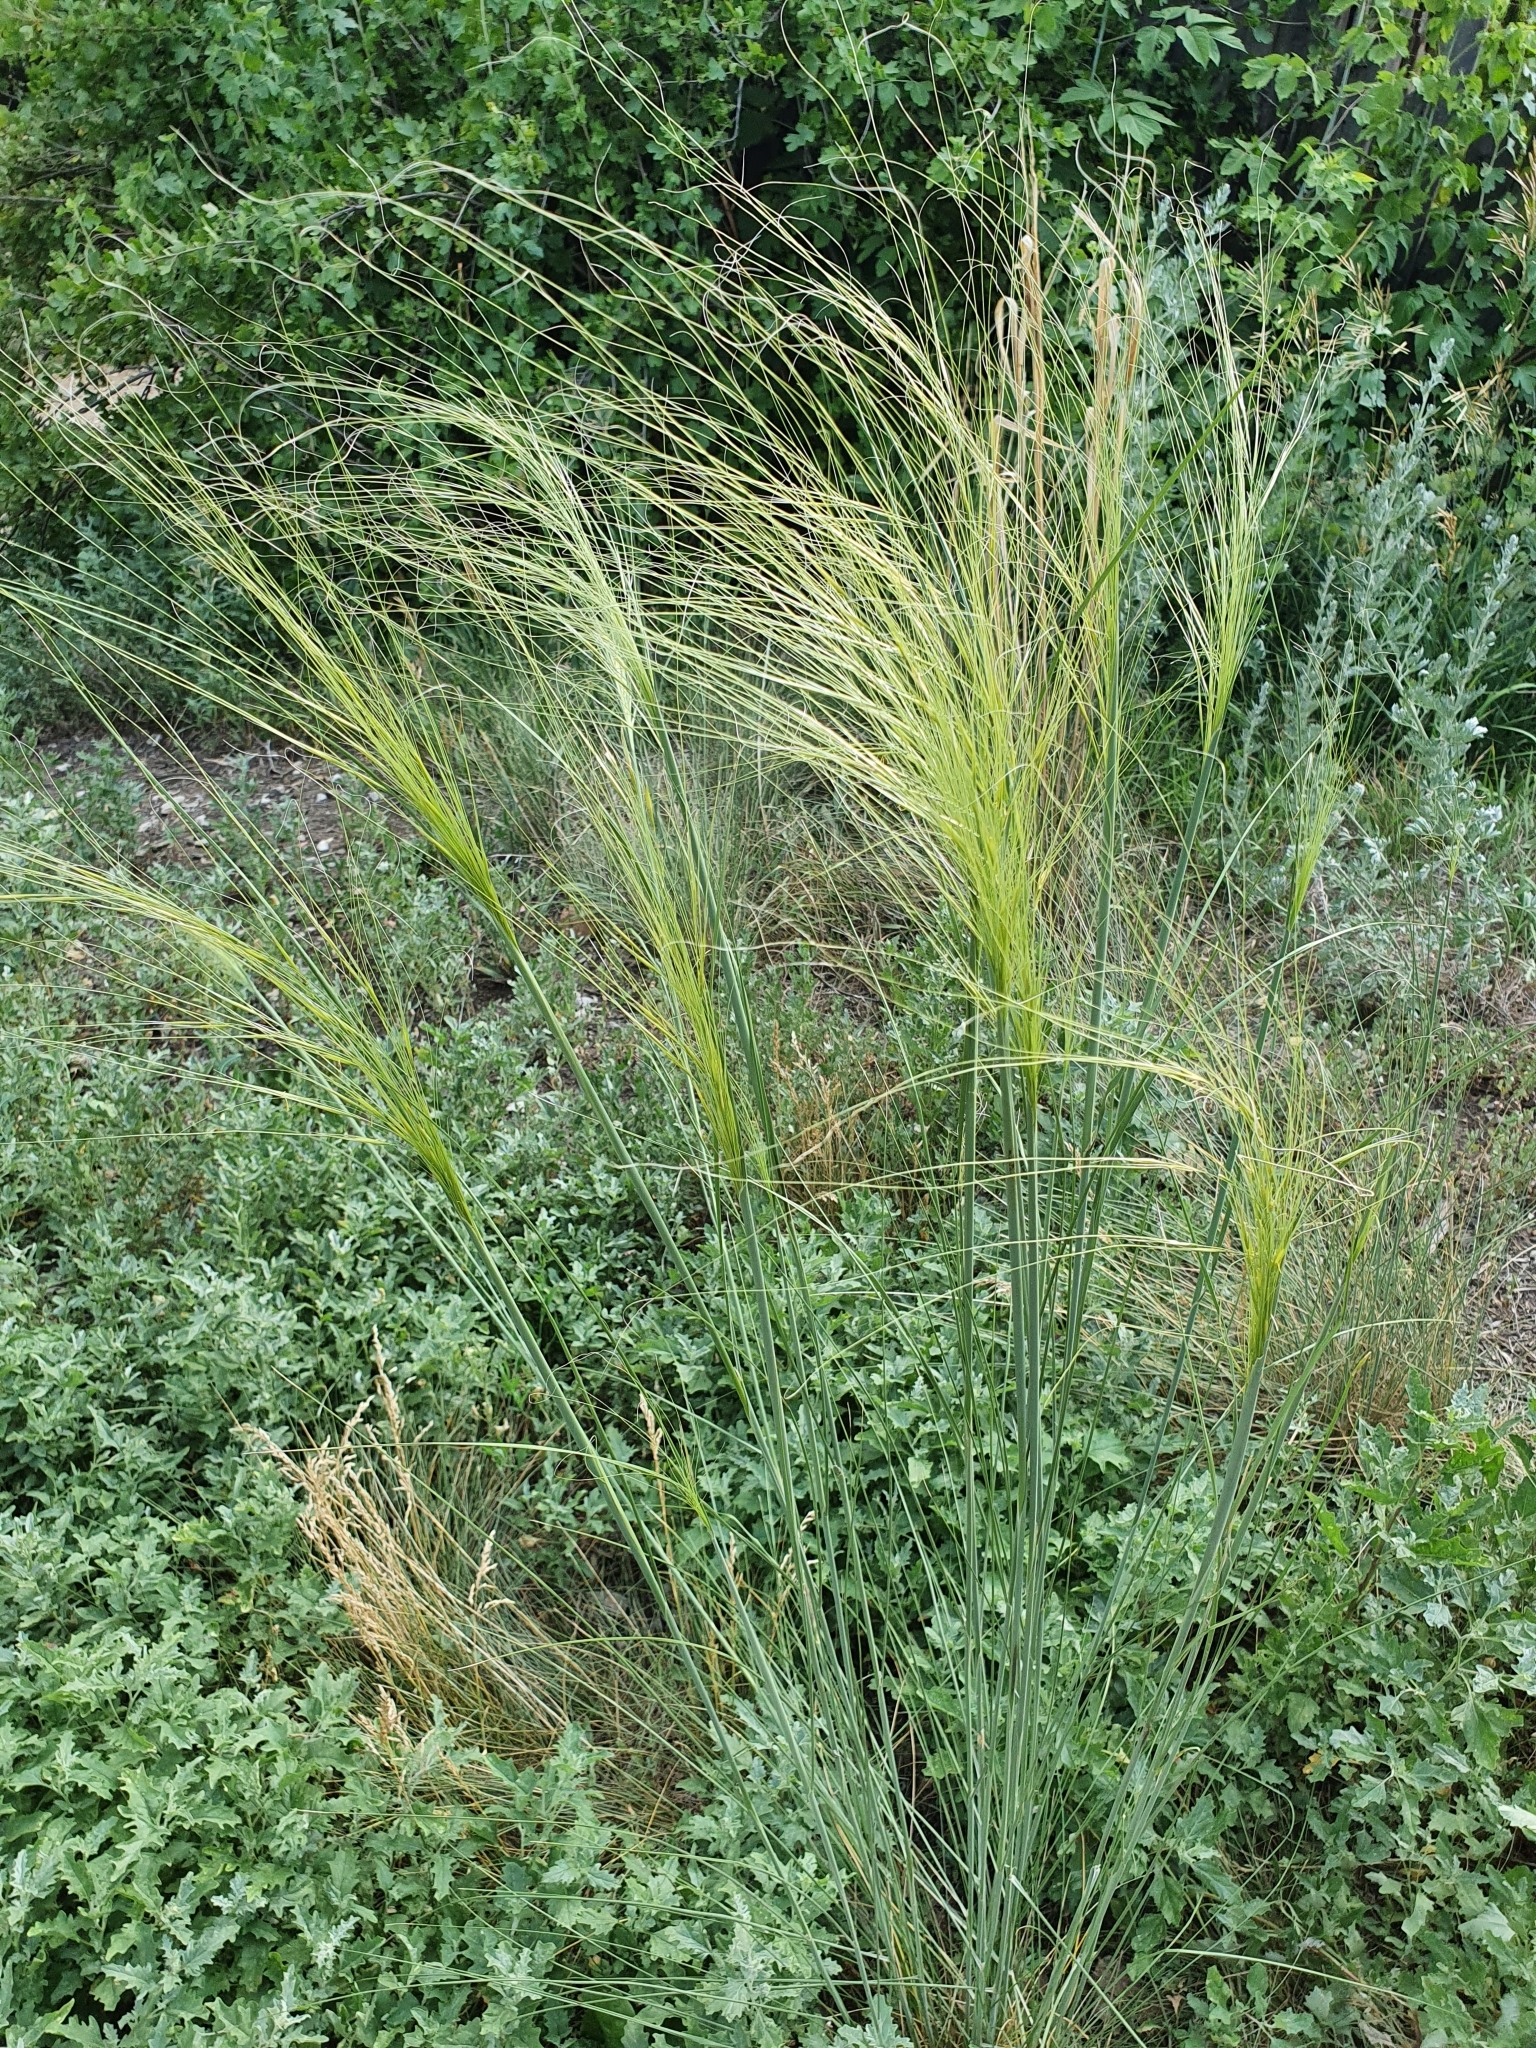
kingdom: Plantae
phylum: Tracheophyta
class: Liliopsida
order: Poales
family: Poaceae
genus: Stipa
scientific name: Stipa capillata
